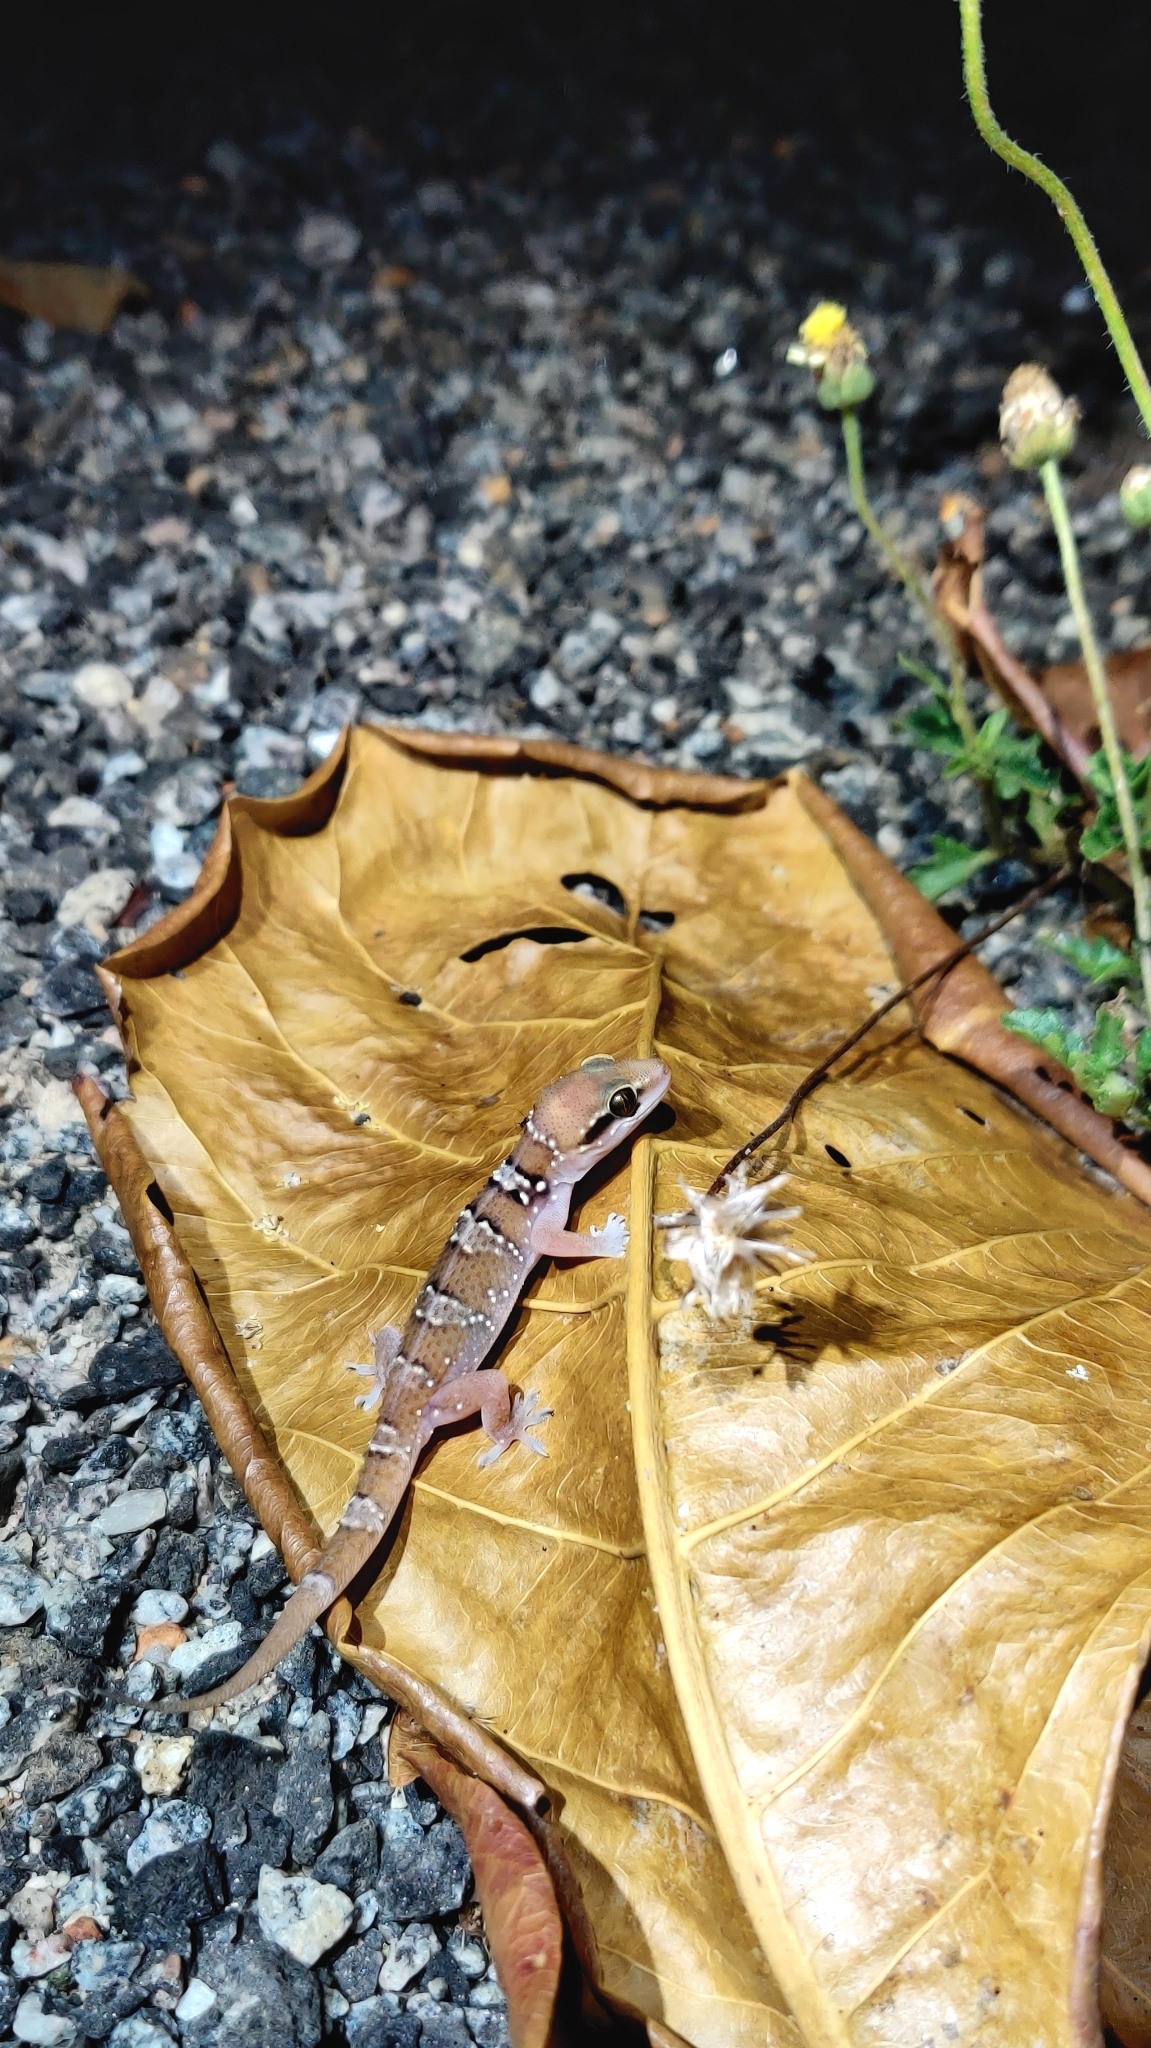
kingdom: Animalia
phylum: Chordata
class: Squamata
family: Gekkonidae
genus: Hemidactylus
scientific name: Hemidactylus whitakeri
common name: Whitaker’s termite hill gecko
